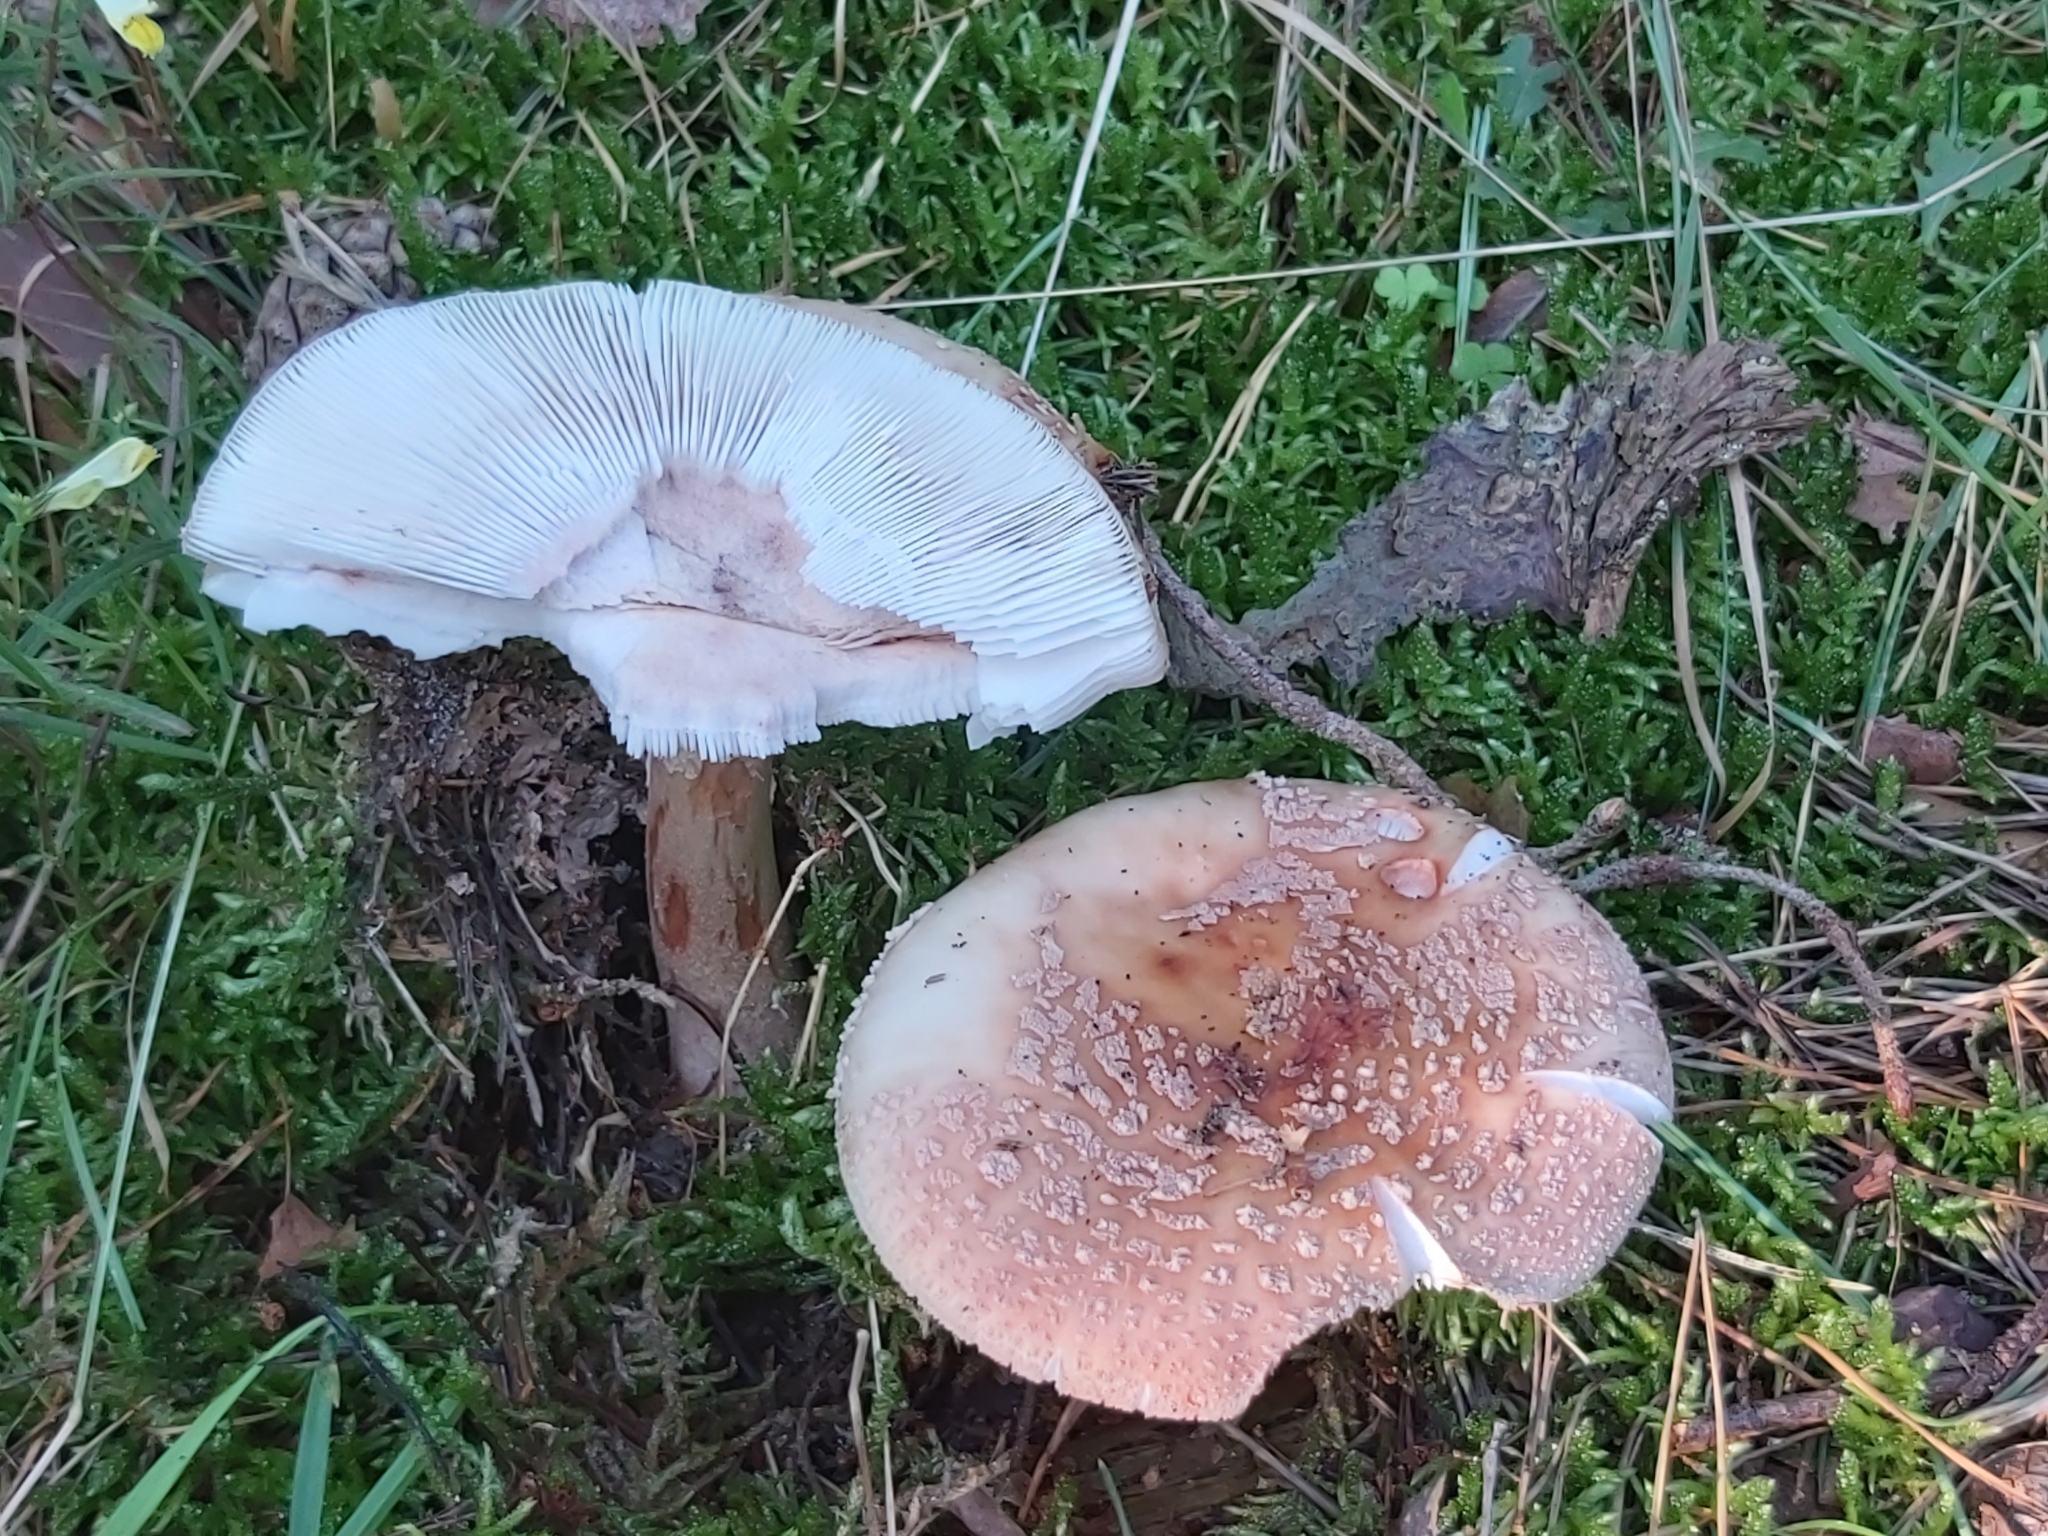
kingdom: Fungi
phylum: Basidiomycota
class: Agaricomycetes
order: Agaricales
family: Amanitaceae
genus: Amanita
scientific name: Amanita rubescens
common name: Blusher
